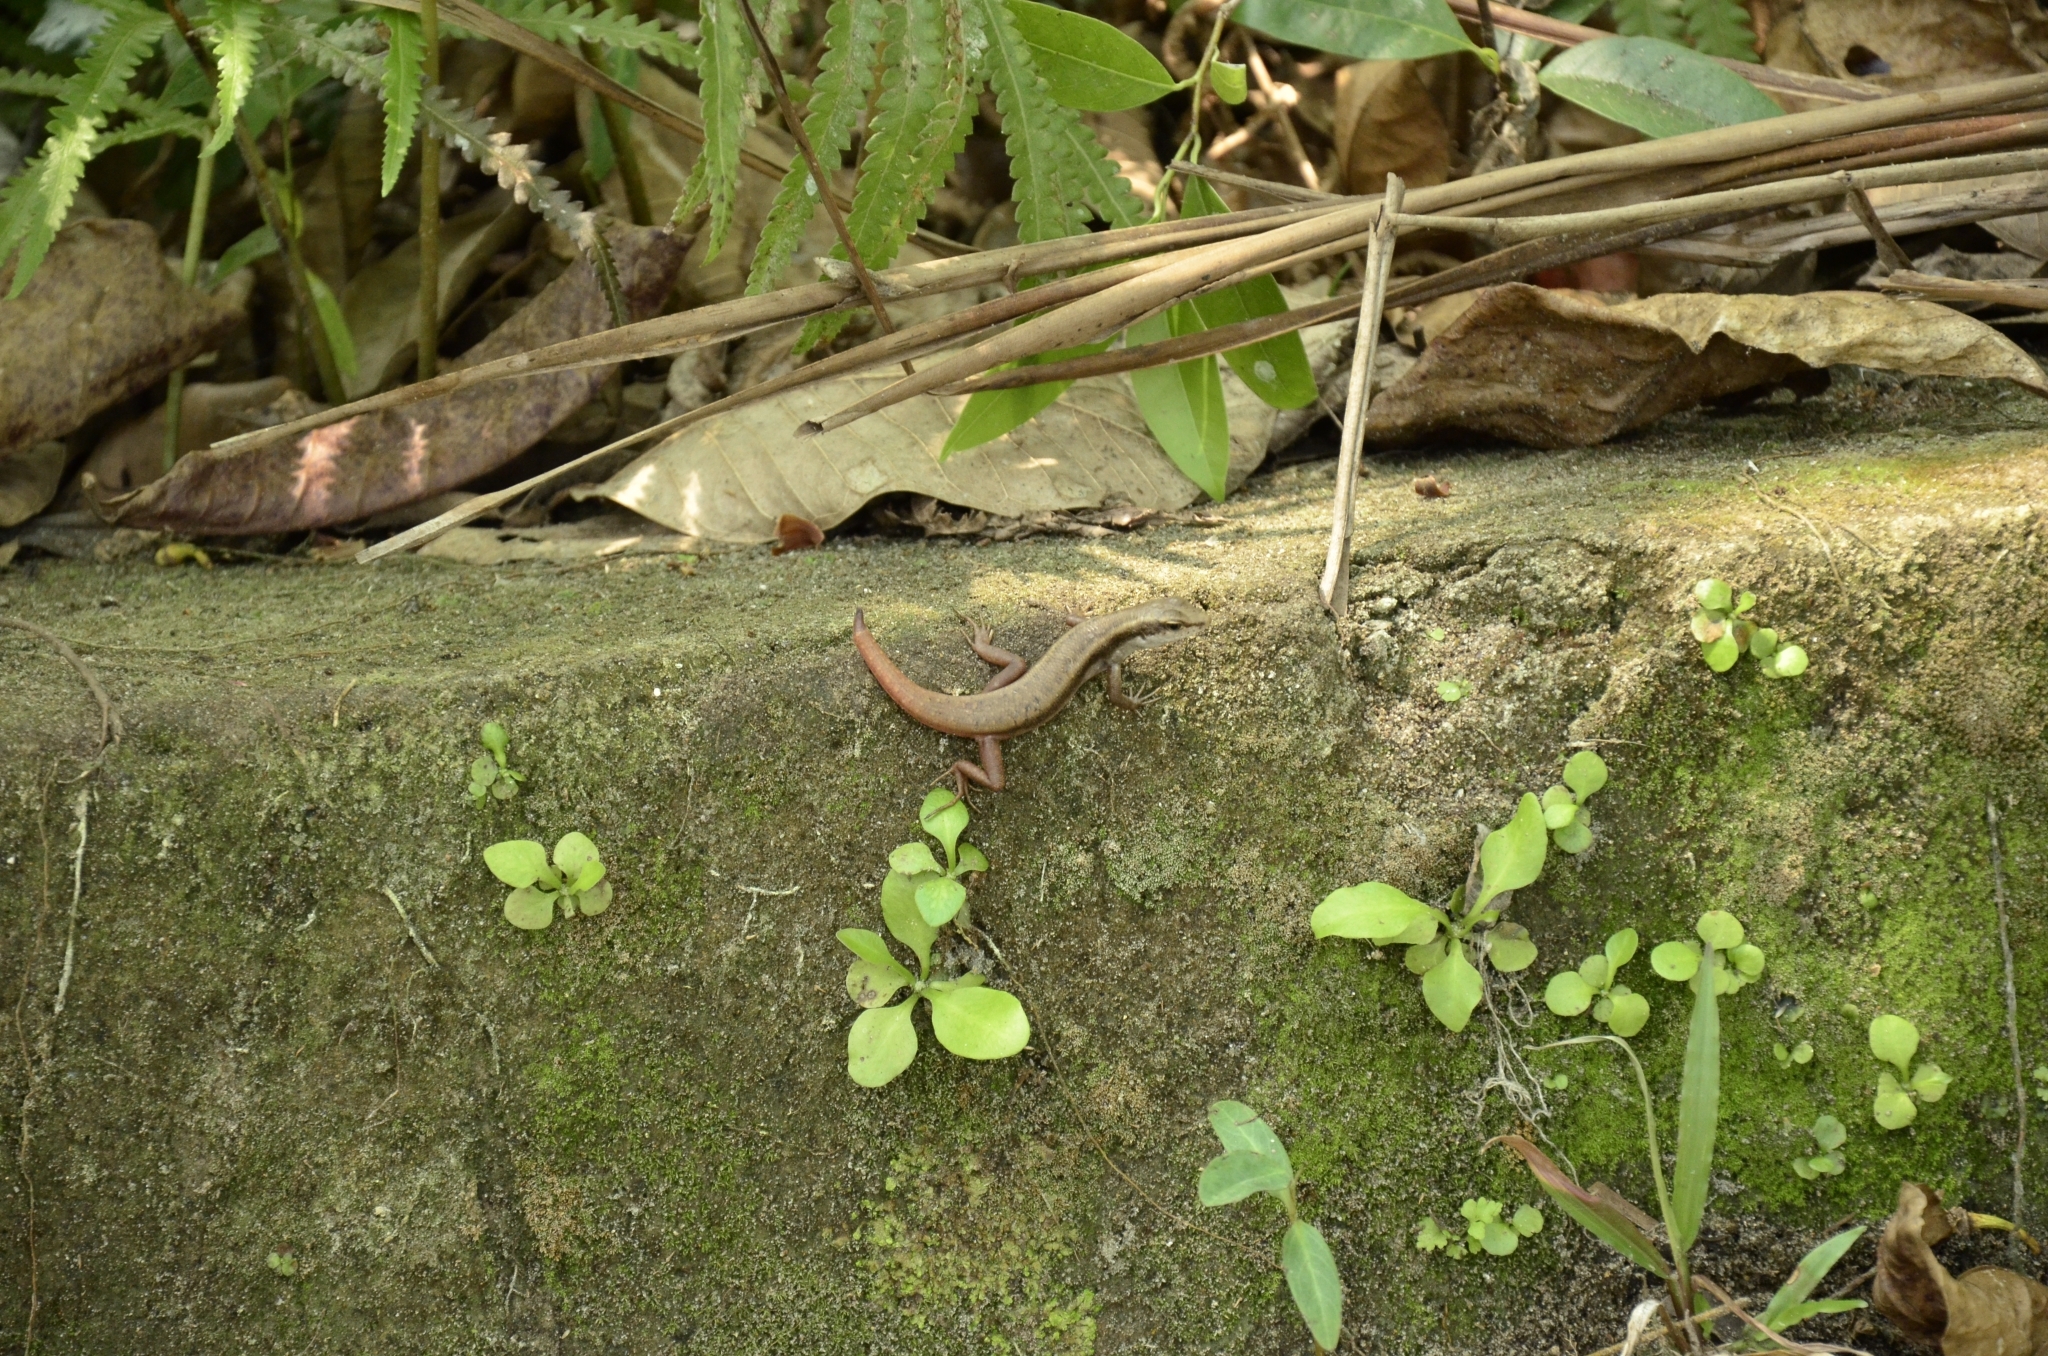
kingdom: Animalia
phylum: Chordata
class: Squamata
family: Scincidae
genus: Sphenomorphus
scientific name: Sphenomorphus dussumieri
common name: Dussumier's forest skink
